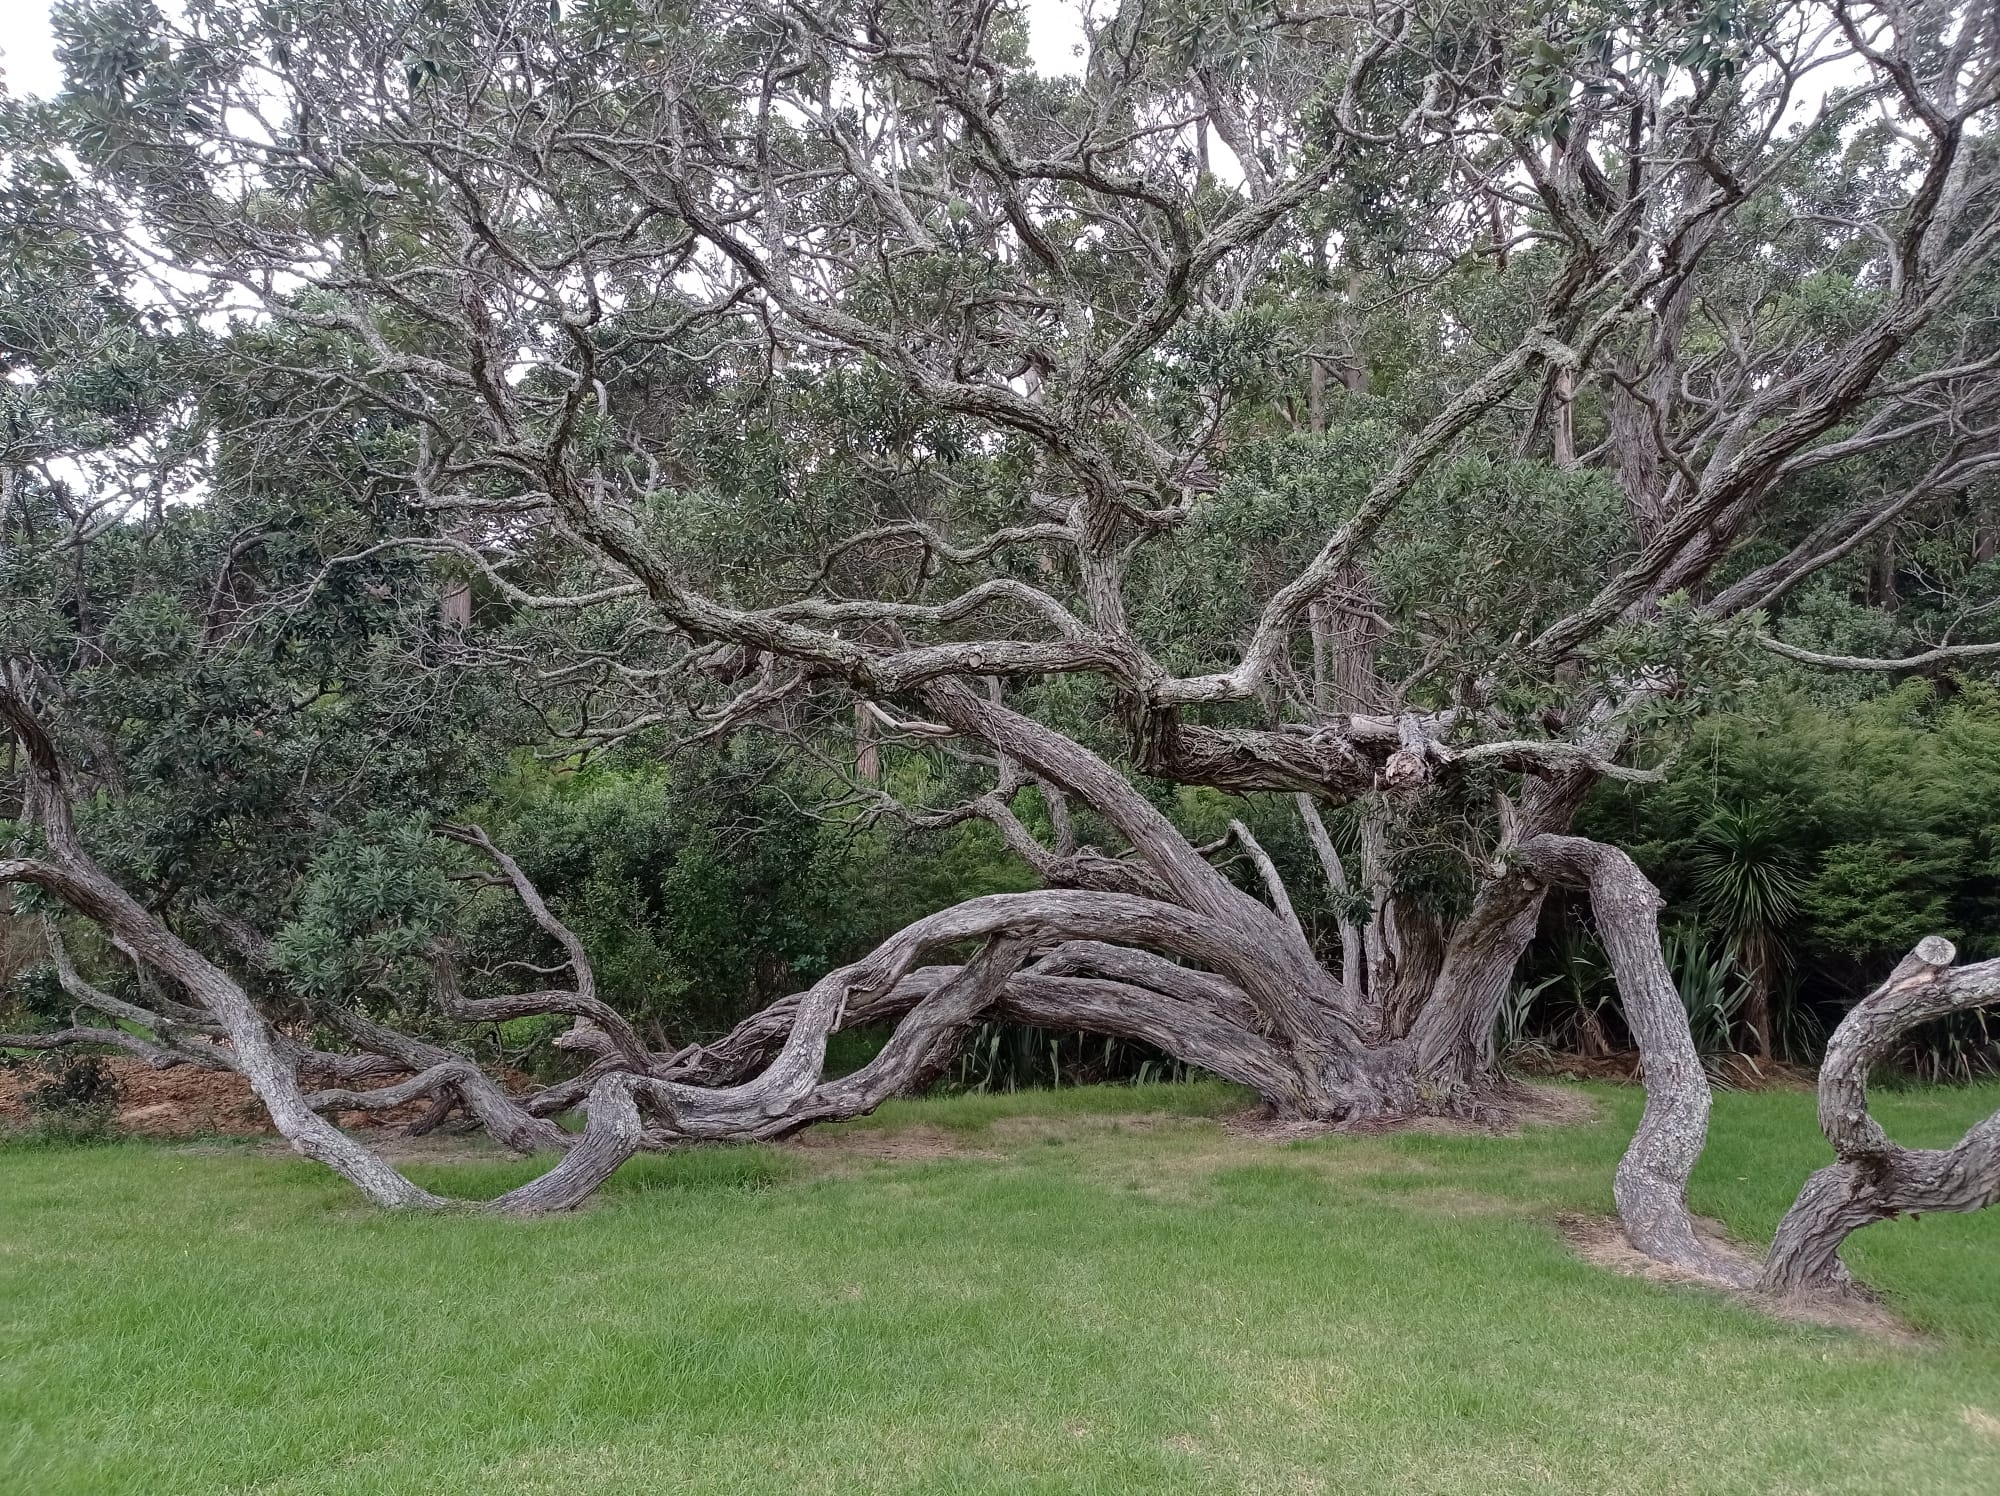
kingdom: Plantae
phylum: Tracheophyta
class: Magnoliopsida
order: Myrtales
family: Myrtaceae
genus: Metrosideros
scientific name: Metrosideros excelsa
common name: New zealand christmastree
